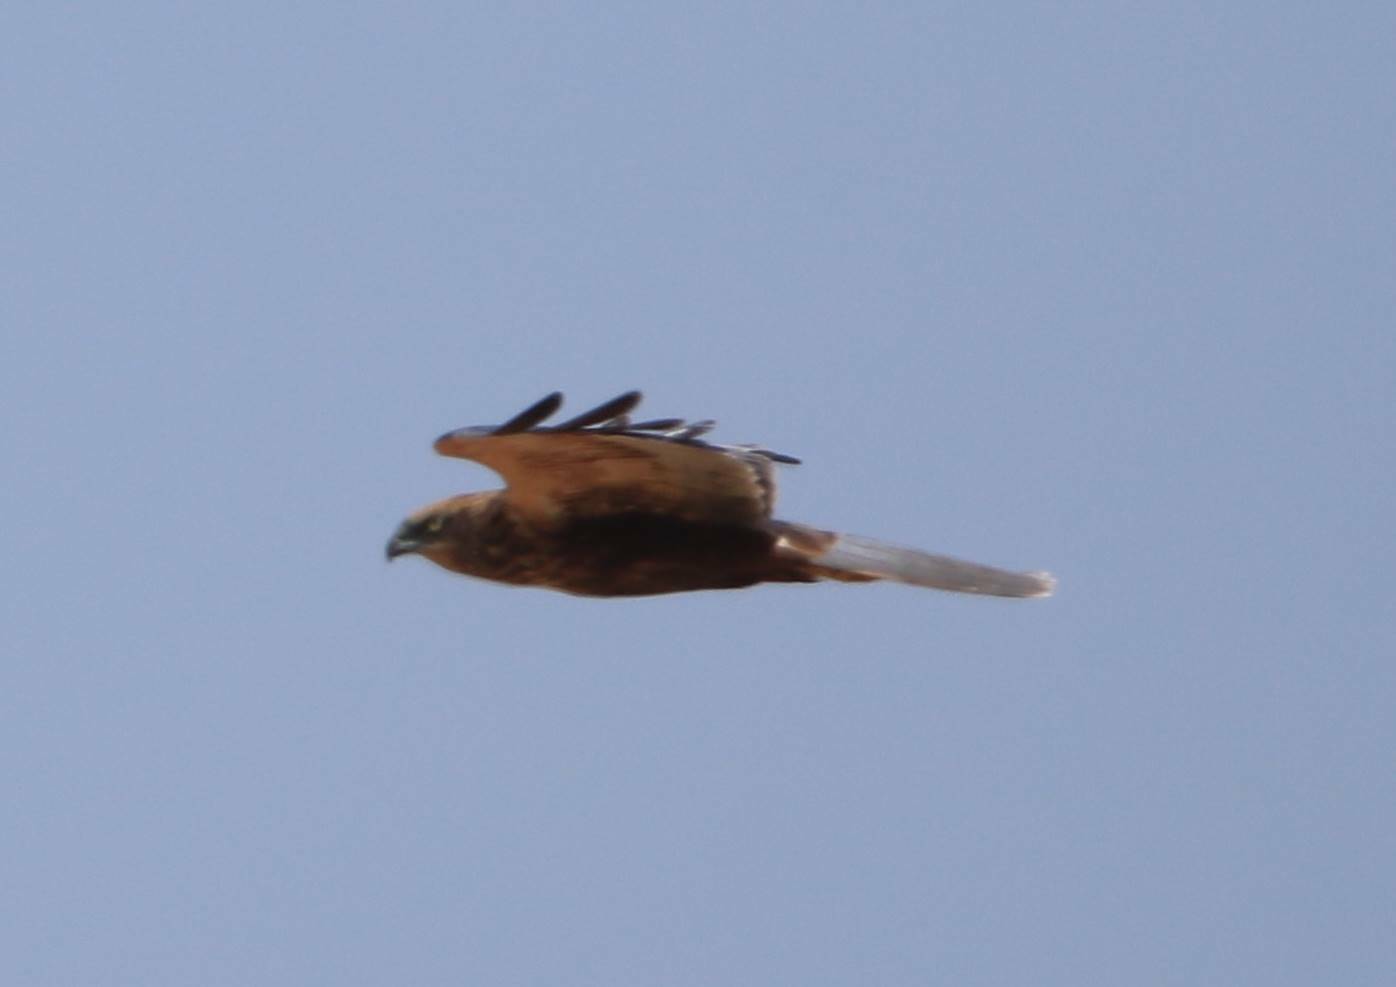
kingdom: Animalia
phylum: Chordata
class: Aves
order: Accipitriformes
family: Accipitridae
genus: Circus
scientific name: Circus aeruginosus
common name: Western marsh harrier
